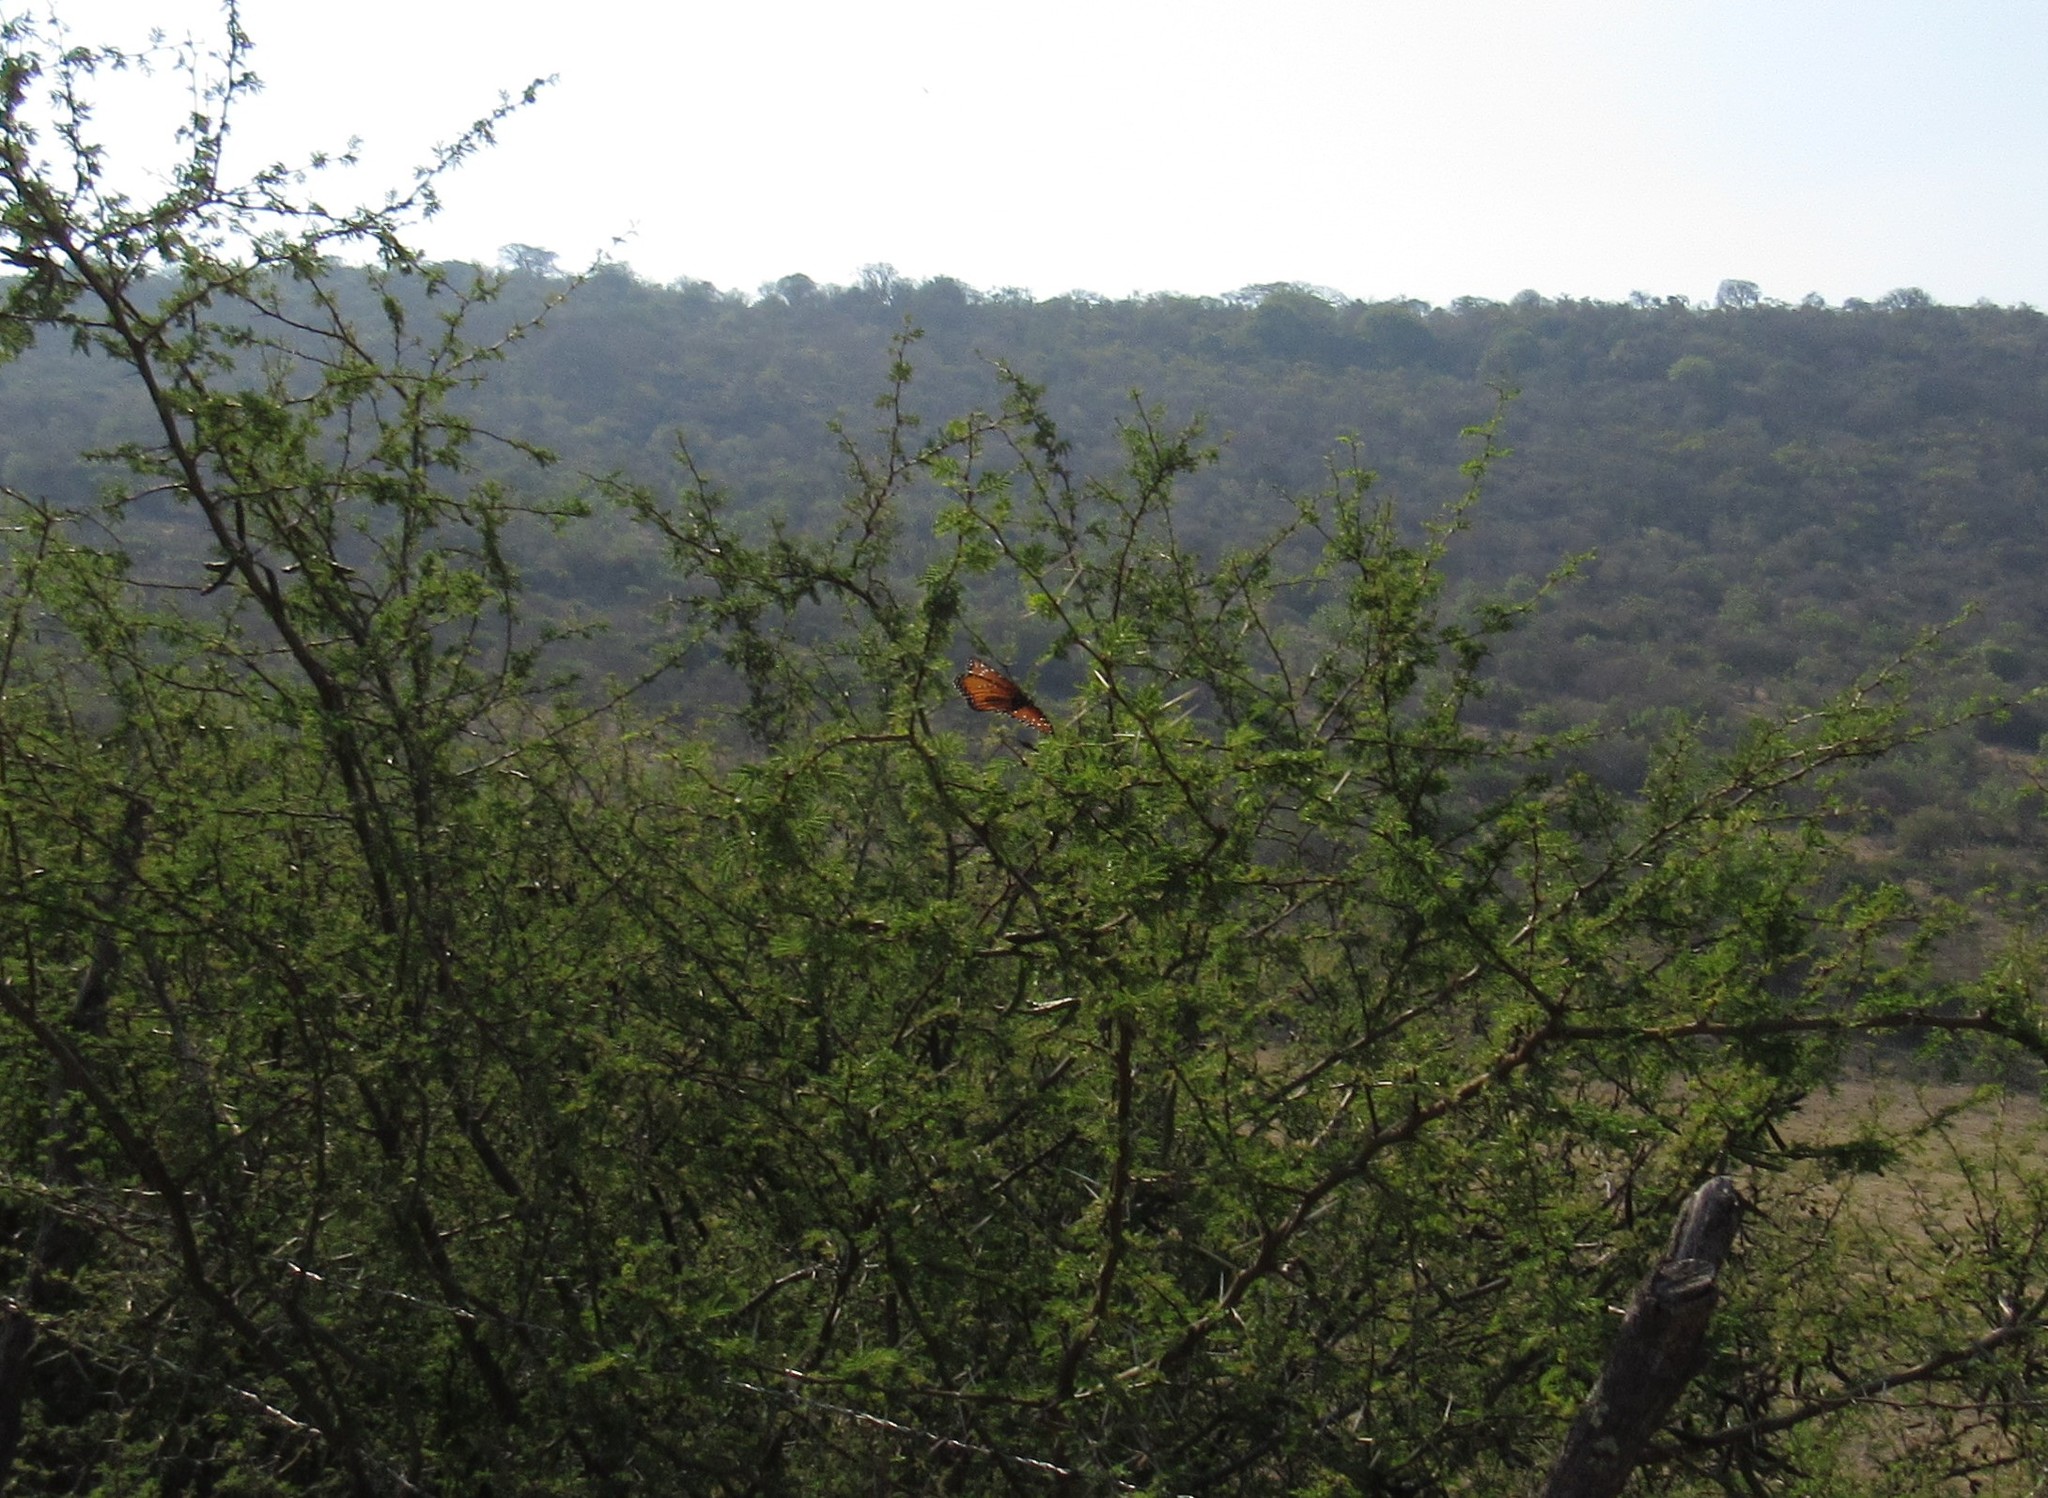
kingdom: Animalia
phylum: Arthropoda
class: Insecta
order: Lepidoptera
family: Nymphalidae
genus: Danaus
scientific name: Danaus gilippus
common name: Queen
